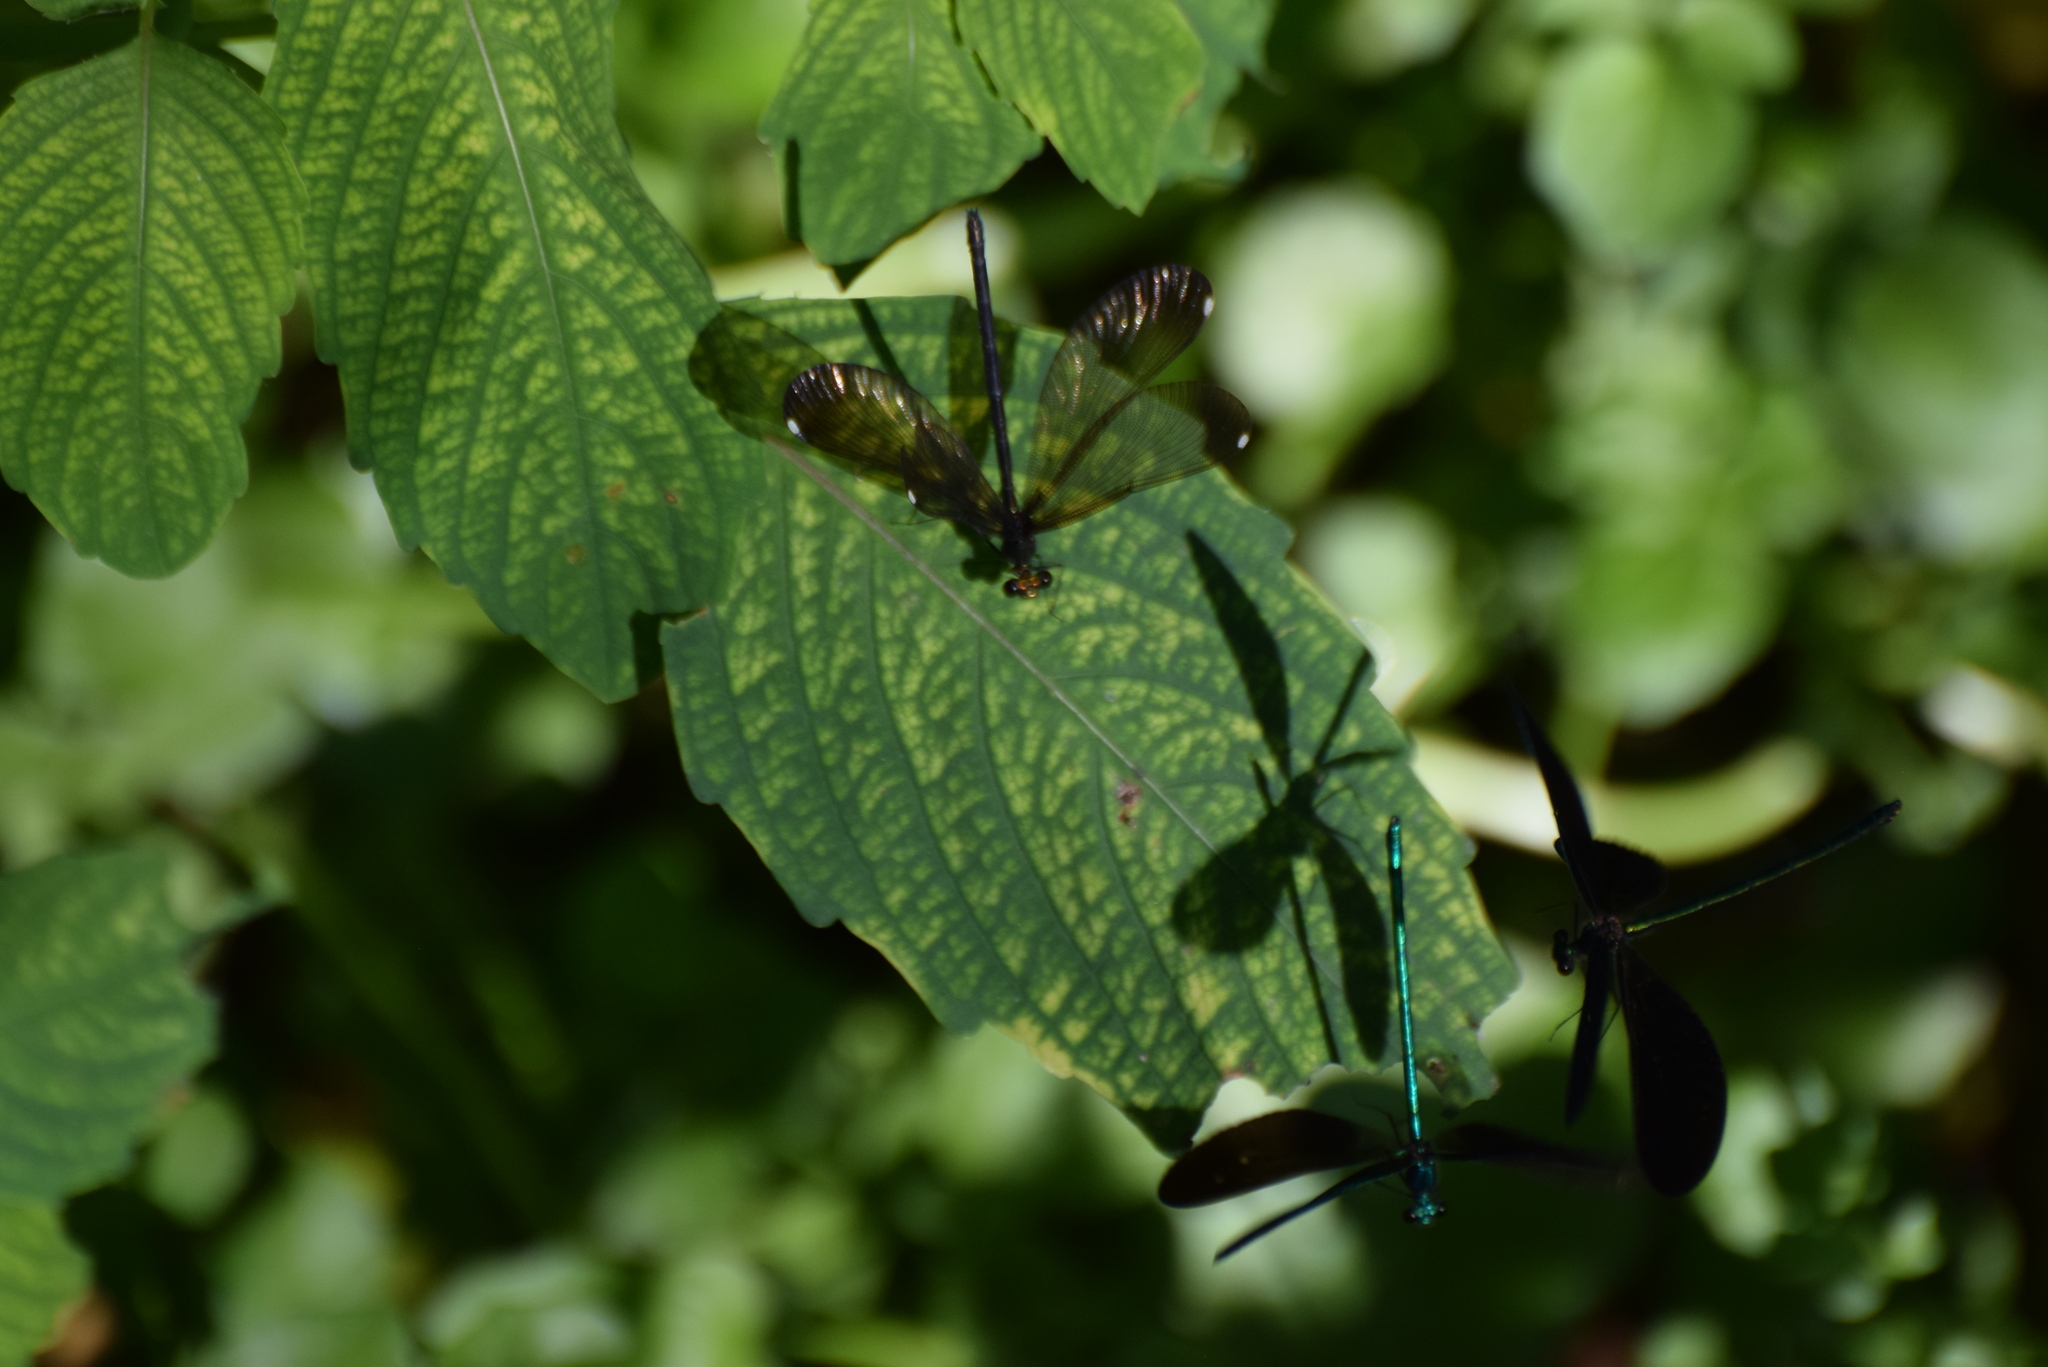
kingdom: Animalia
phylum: Arthropoda
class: Insecta
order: Odonata
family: Calopterygidae
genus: Calopteryx
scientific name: Calopteryx maculata
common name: Ebony jewelwing
